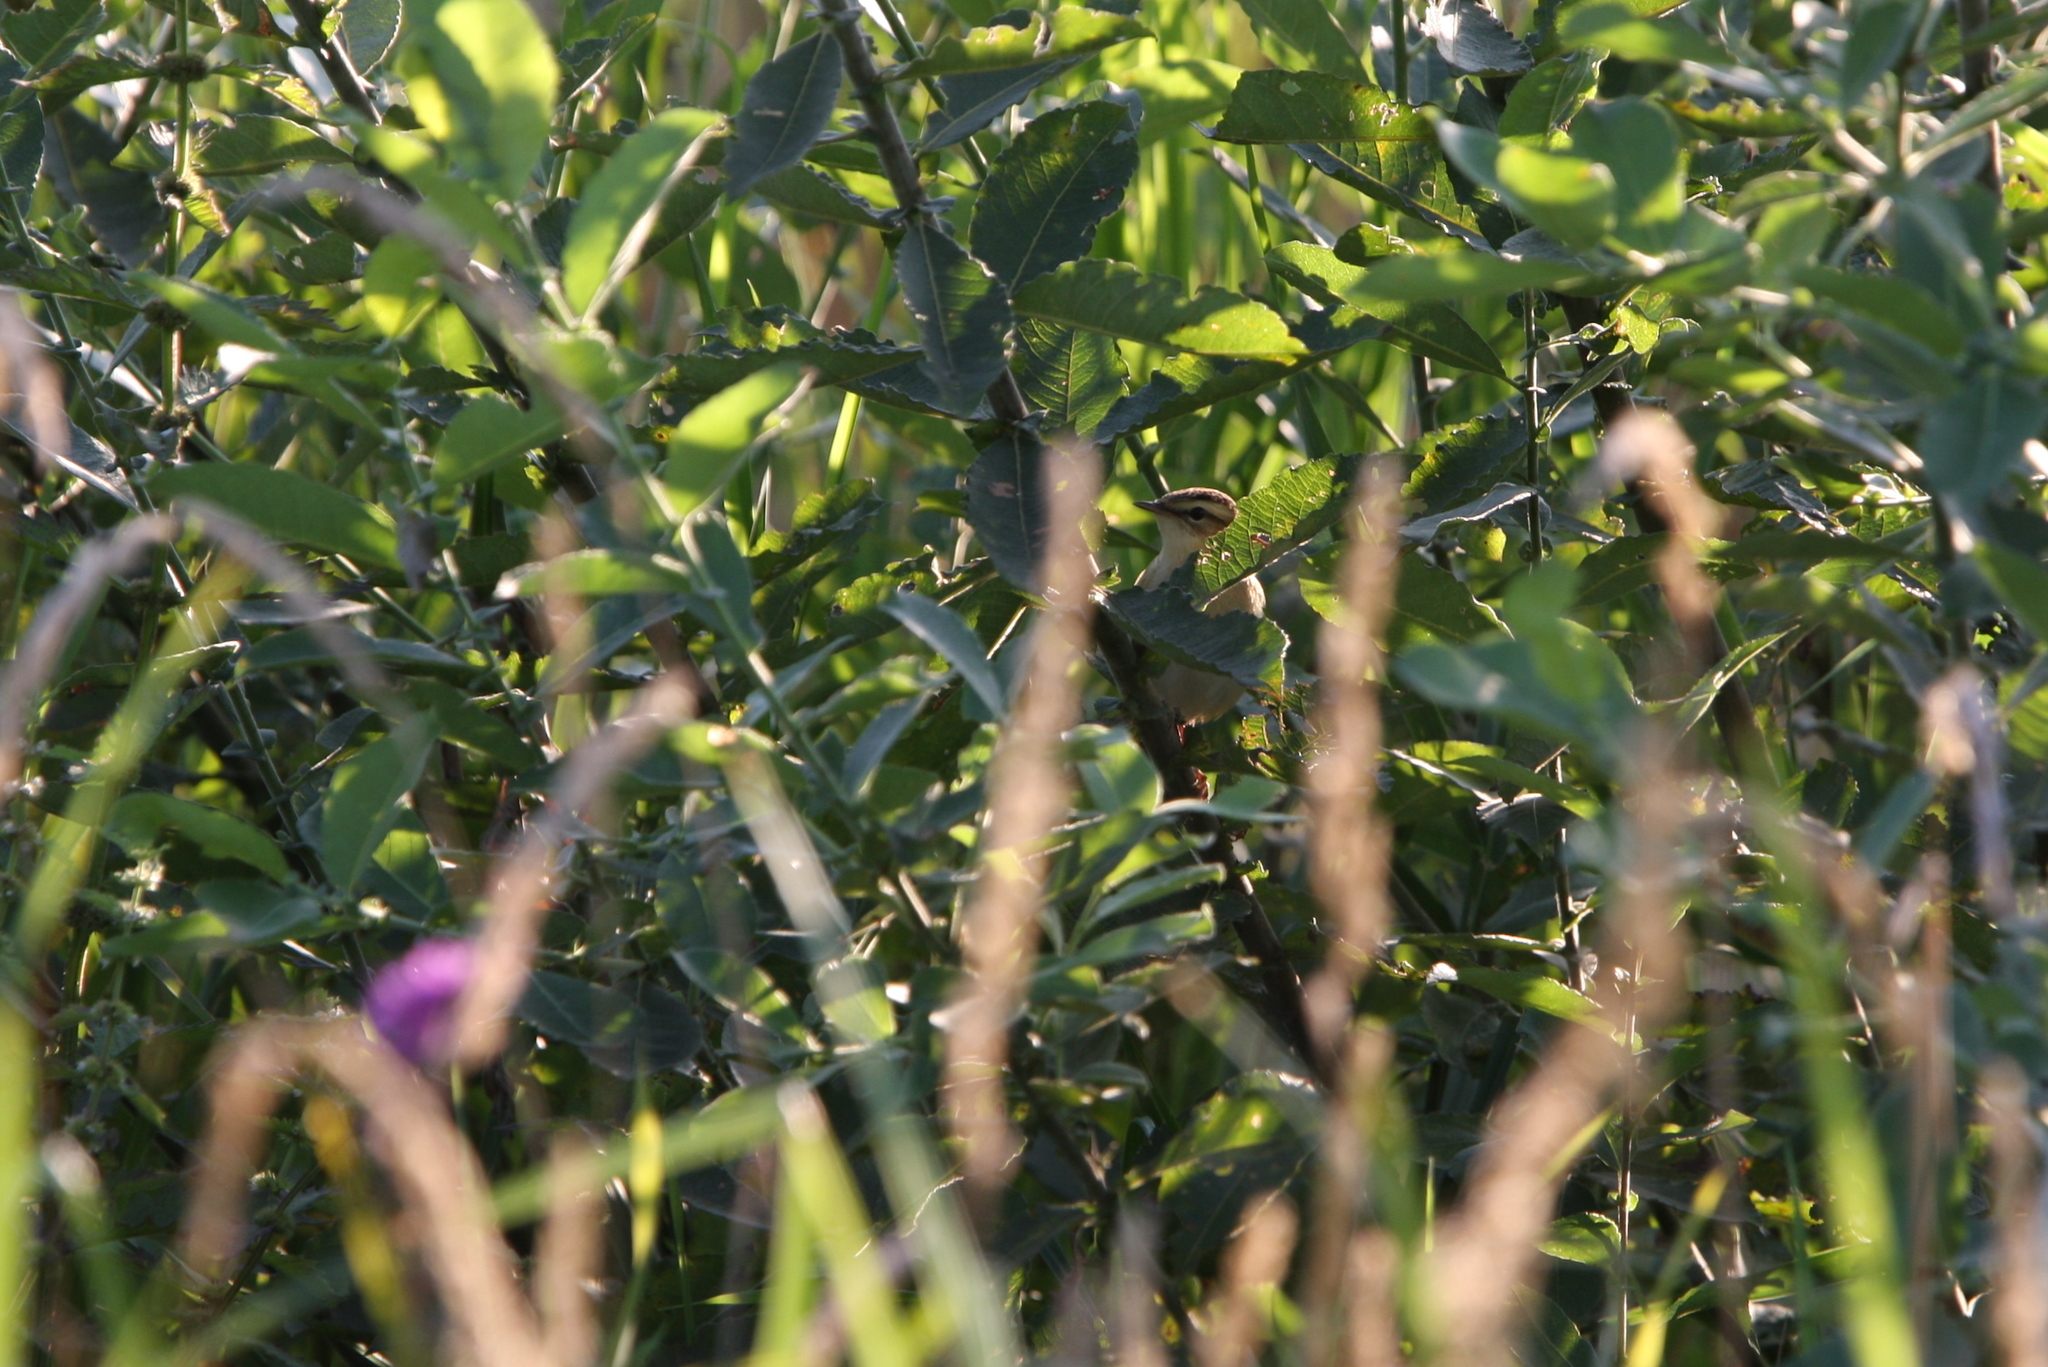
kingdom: Animalia
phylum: Chordata
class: Aves
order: Passeriformes
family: Acrocephalidae
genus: Acrocephalus
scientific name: Acrocephalus schoenobaenus
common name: Sedge warbler
